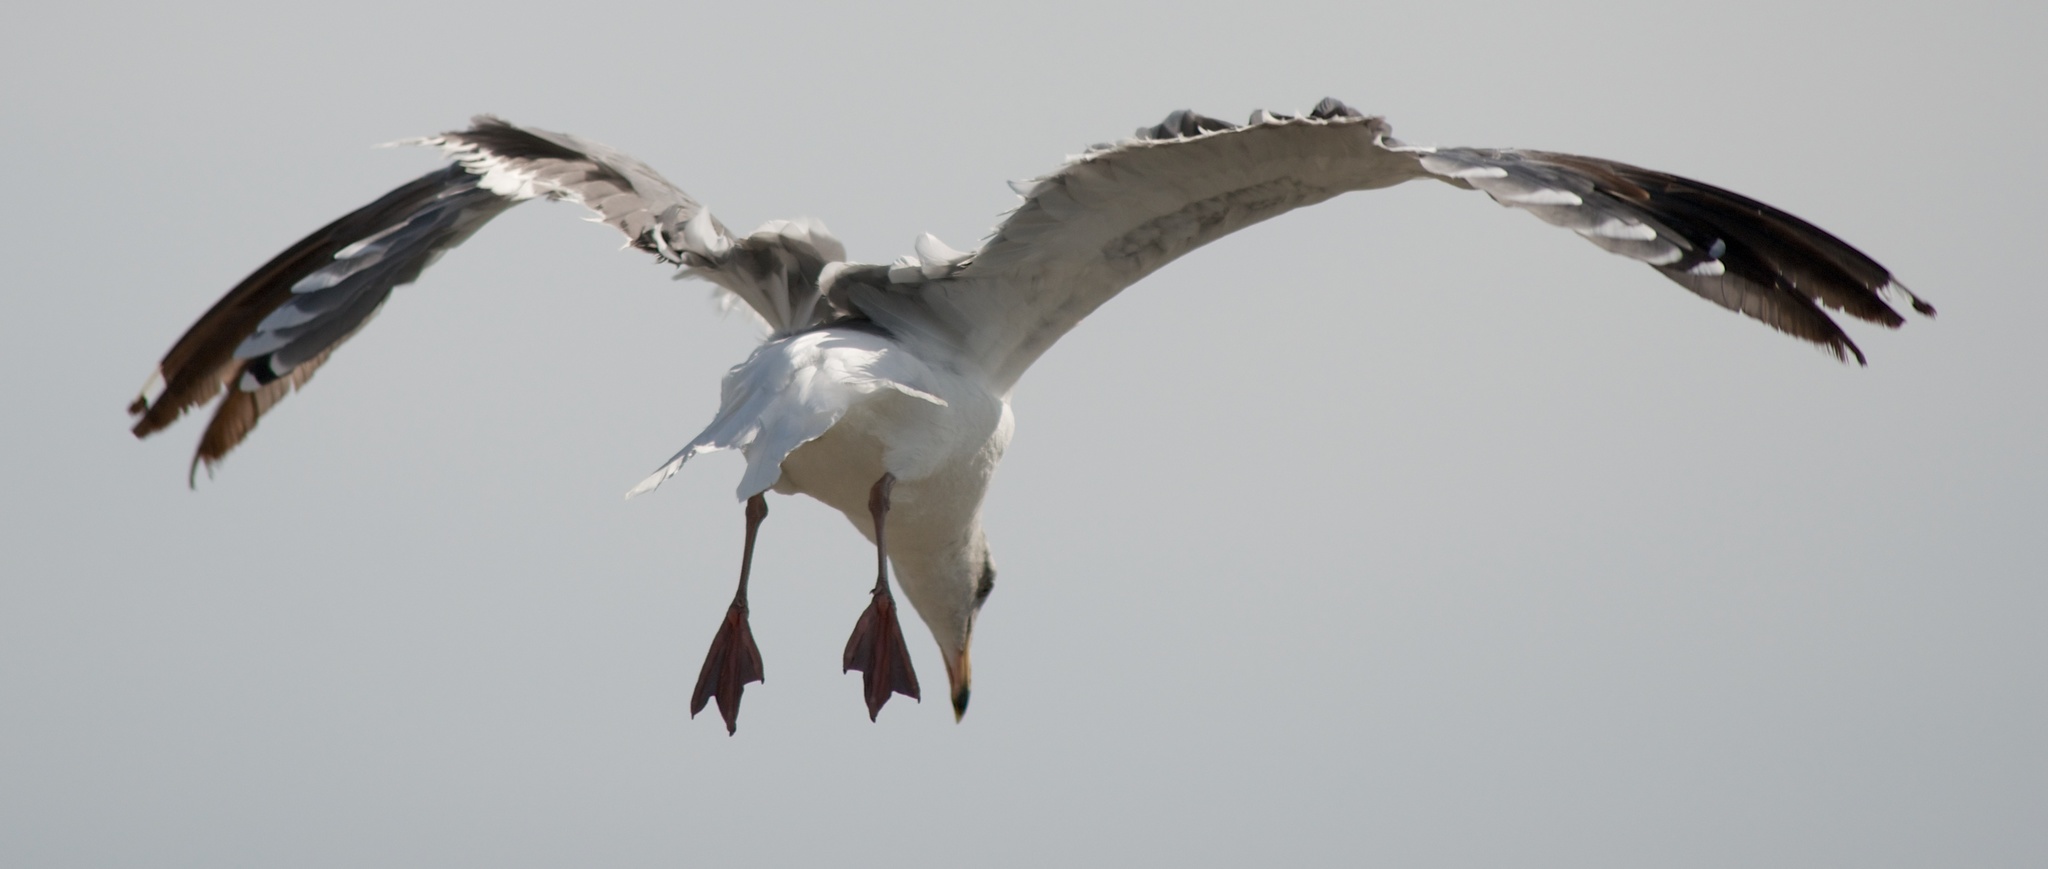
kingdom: Animalia
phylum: Chordata
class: Aves
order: Charadriiformes
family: Laridae
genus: Larus
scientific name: Larus occidentalis
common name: Western gull
